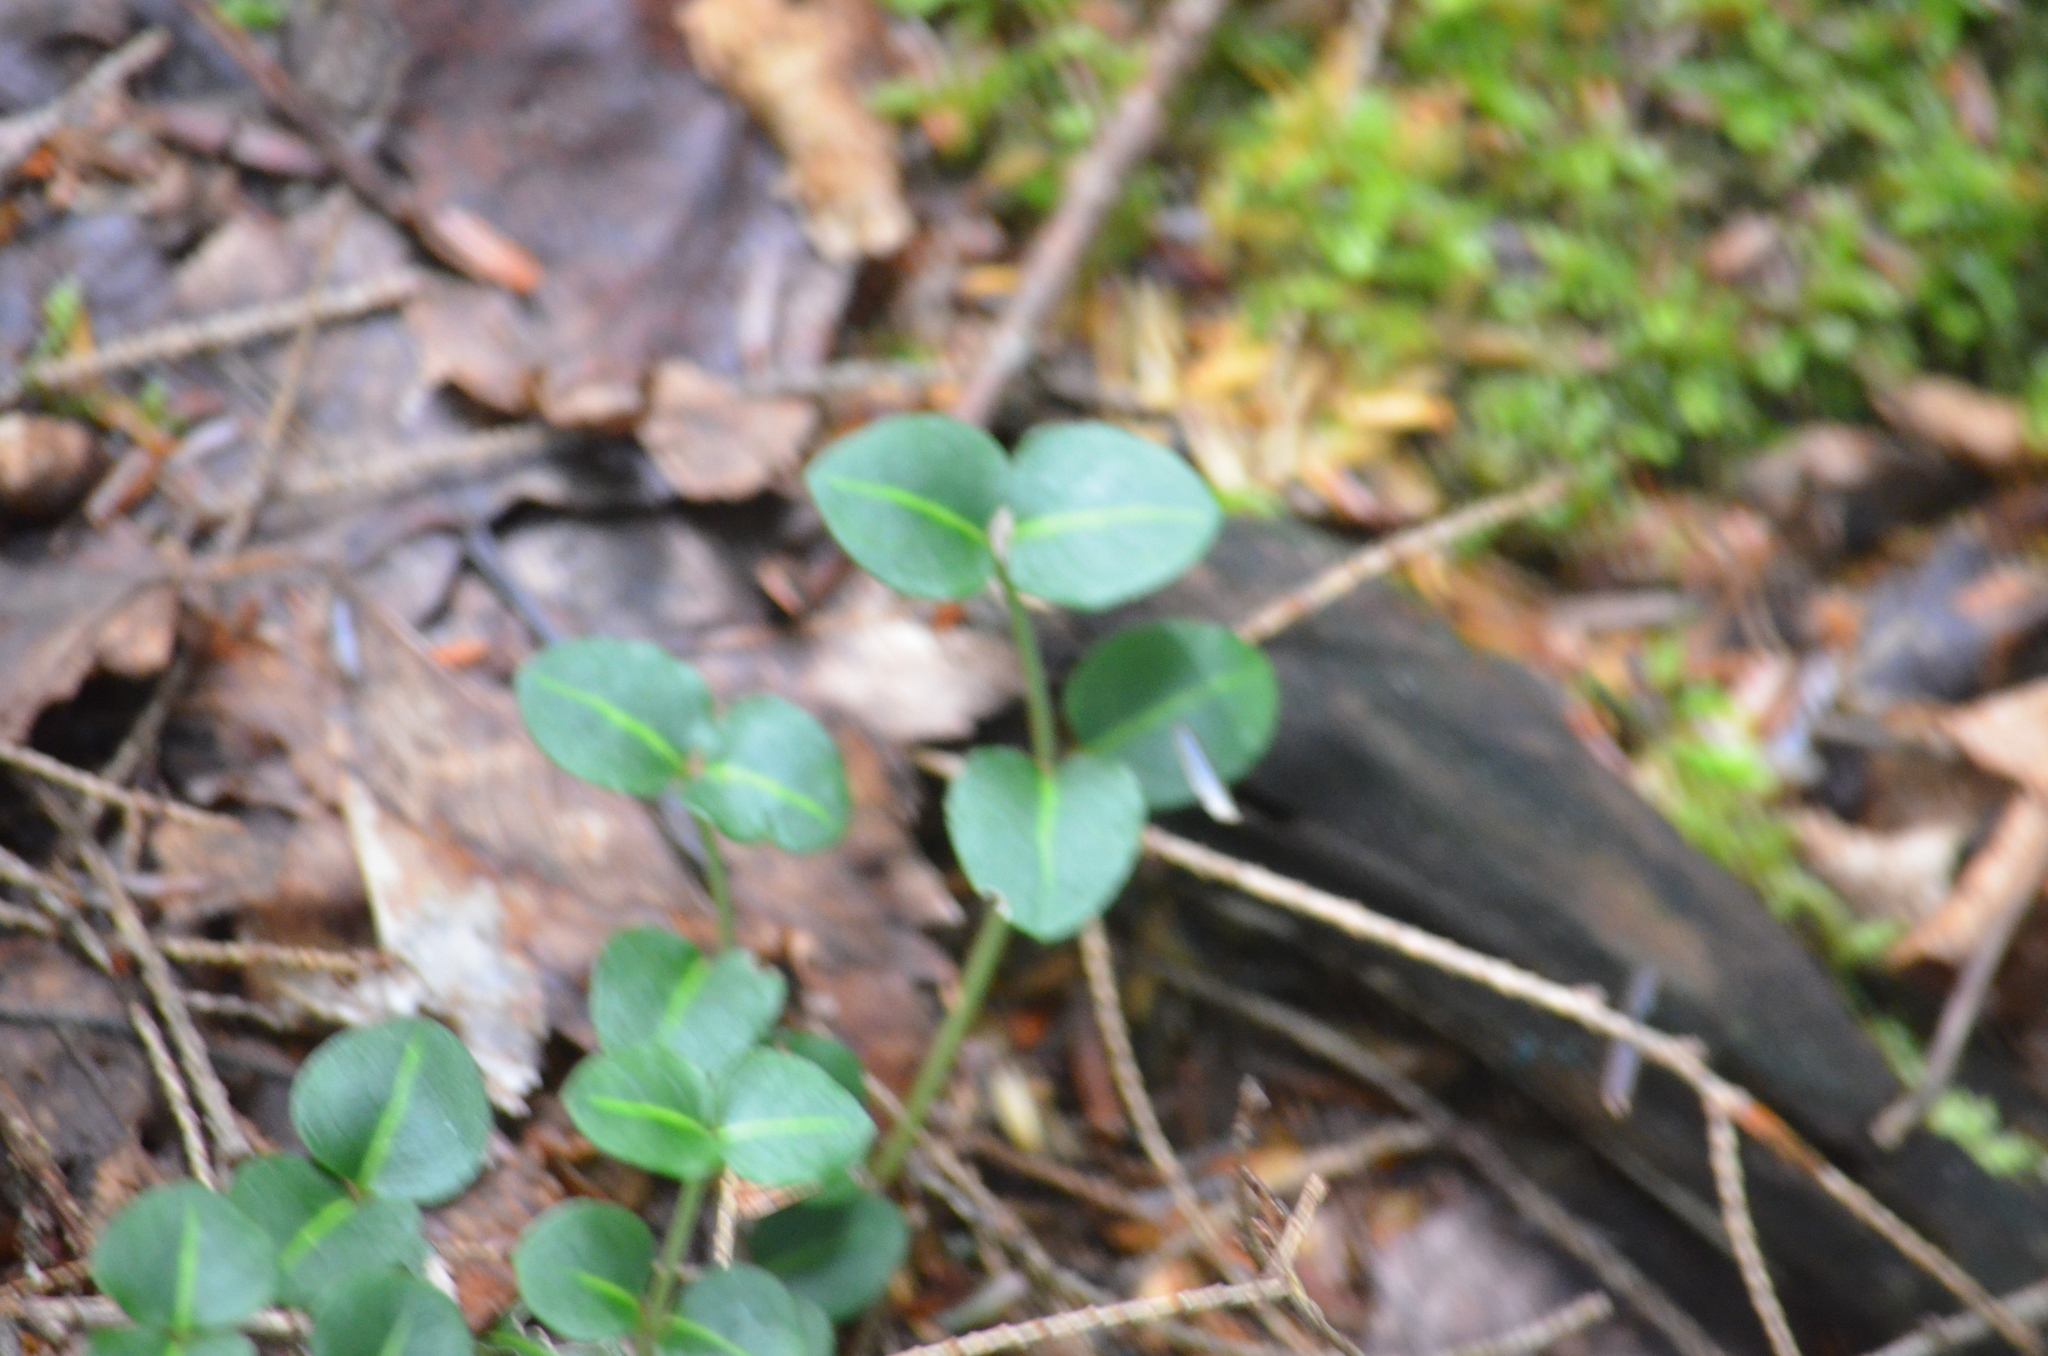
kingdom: Plantae
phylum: Tracheophyta
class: Magnoliopsida
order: Gentianales
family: Rubiaceae
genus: Mitchella
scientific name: Mitchella repens
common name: Partridge-berry
